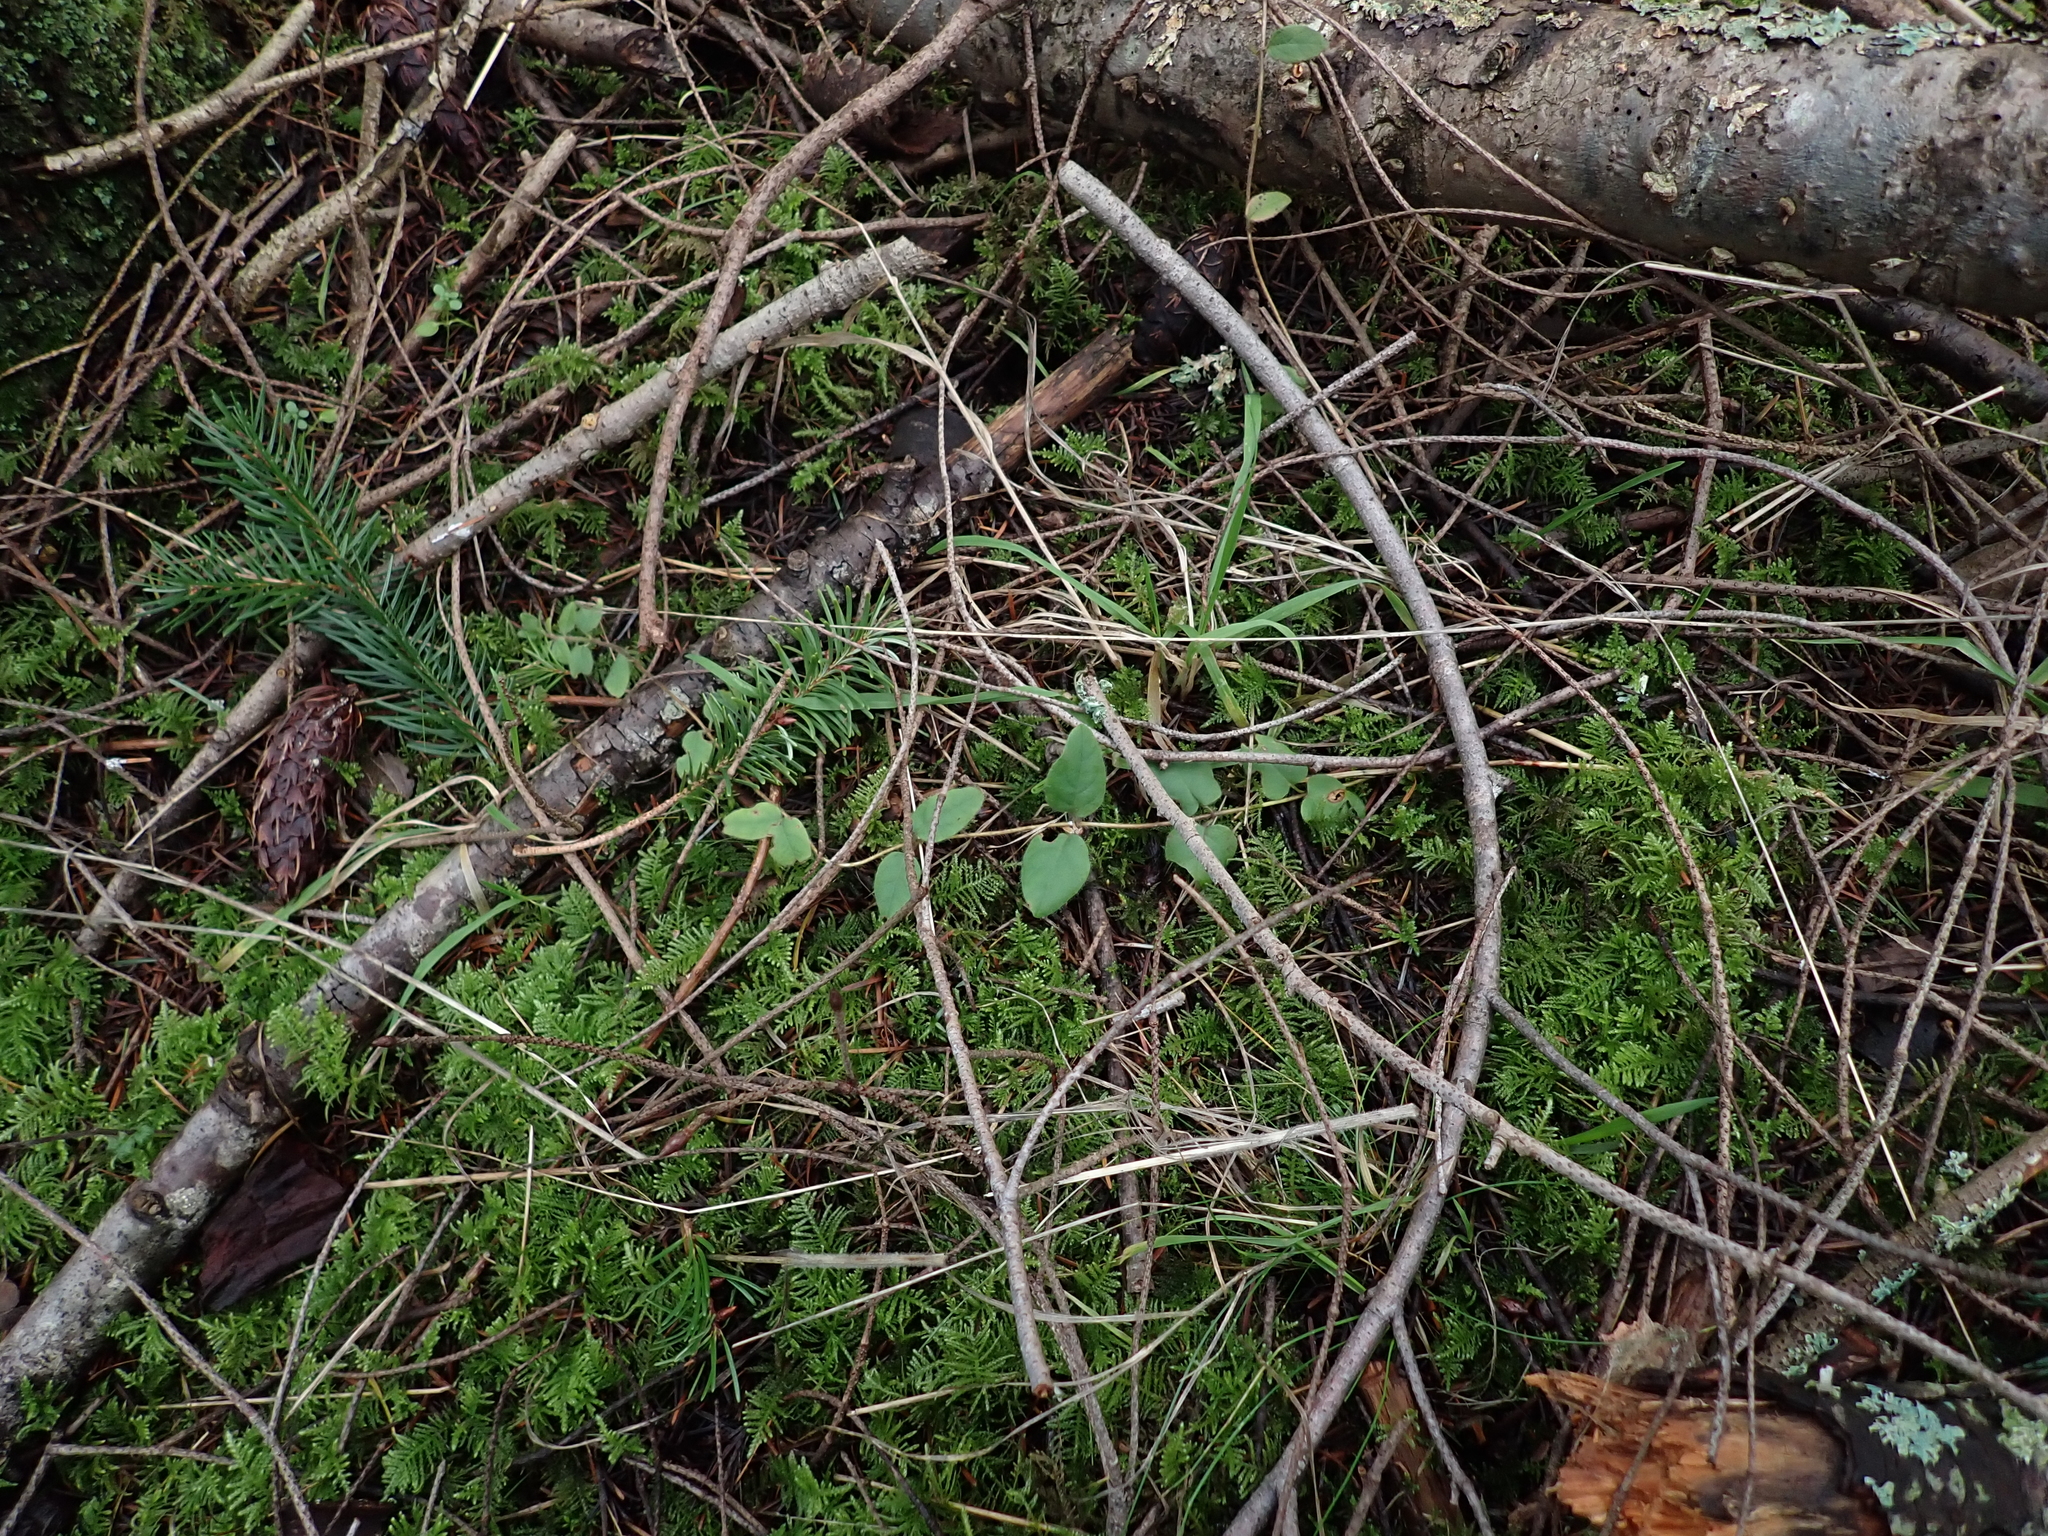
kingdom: Plantae
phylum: Tracheophyta
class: Magnoliopsida
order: Dipsacales
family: Caprifoliaceae
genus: Lonicera
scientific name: Lonicera hispidula
